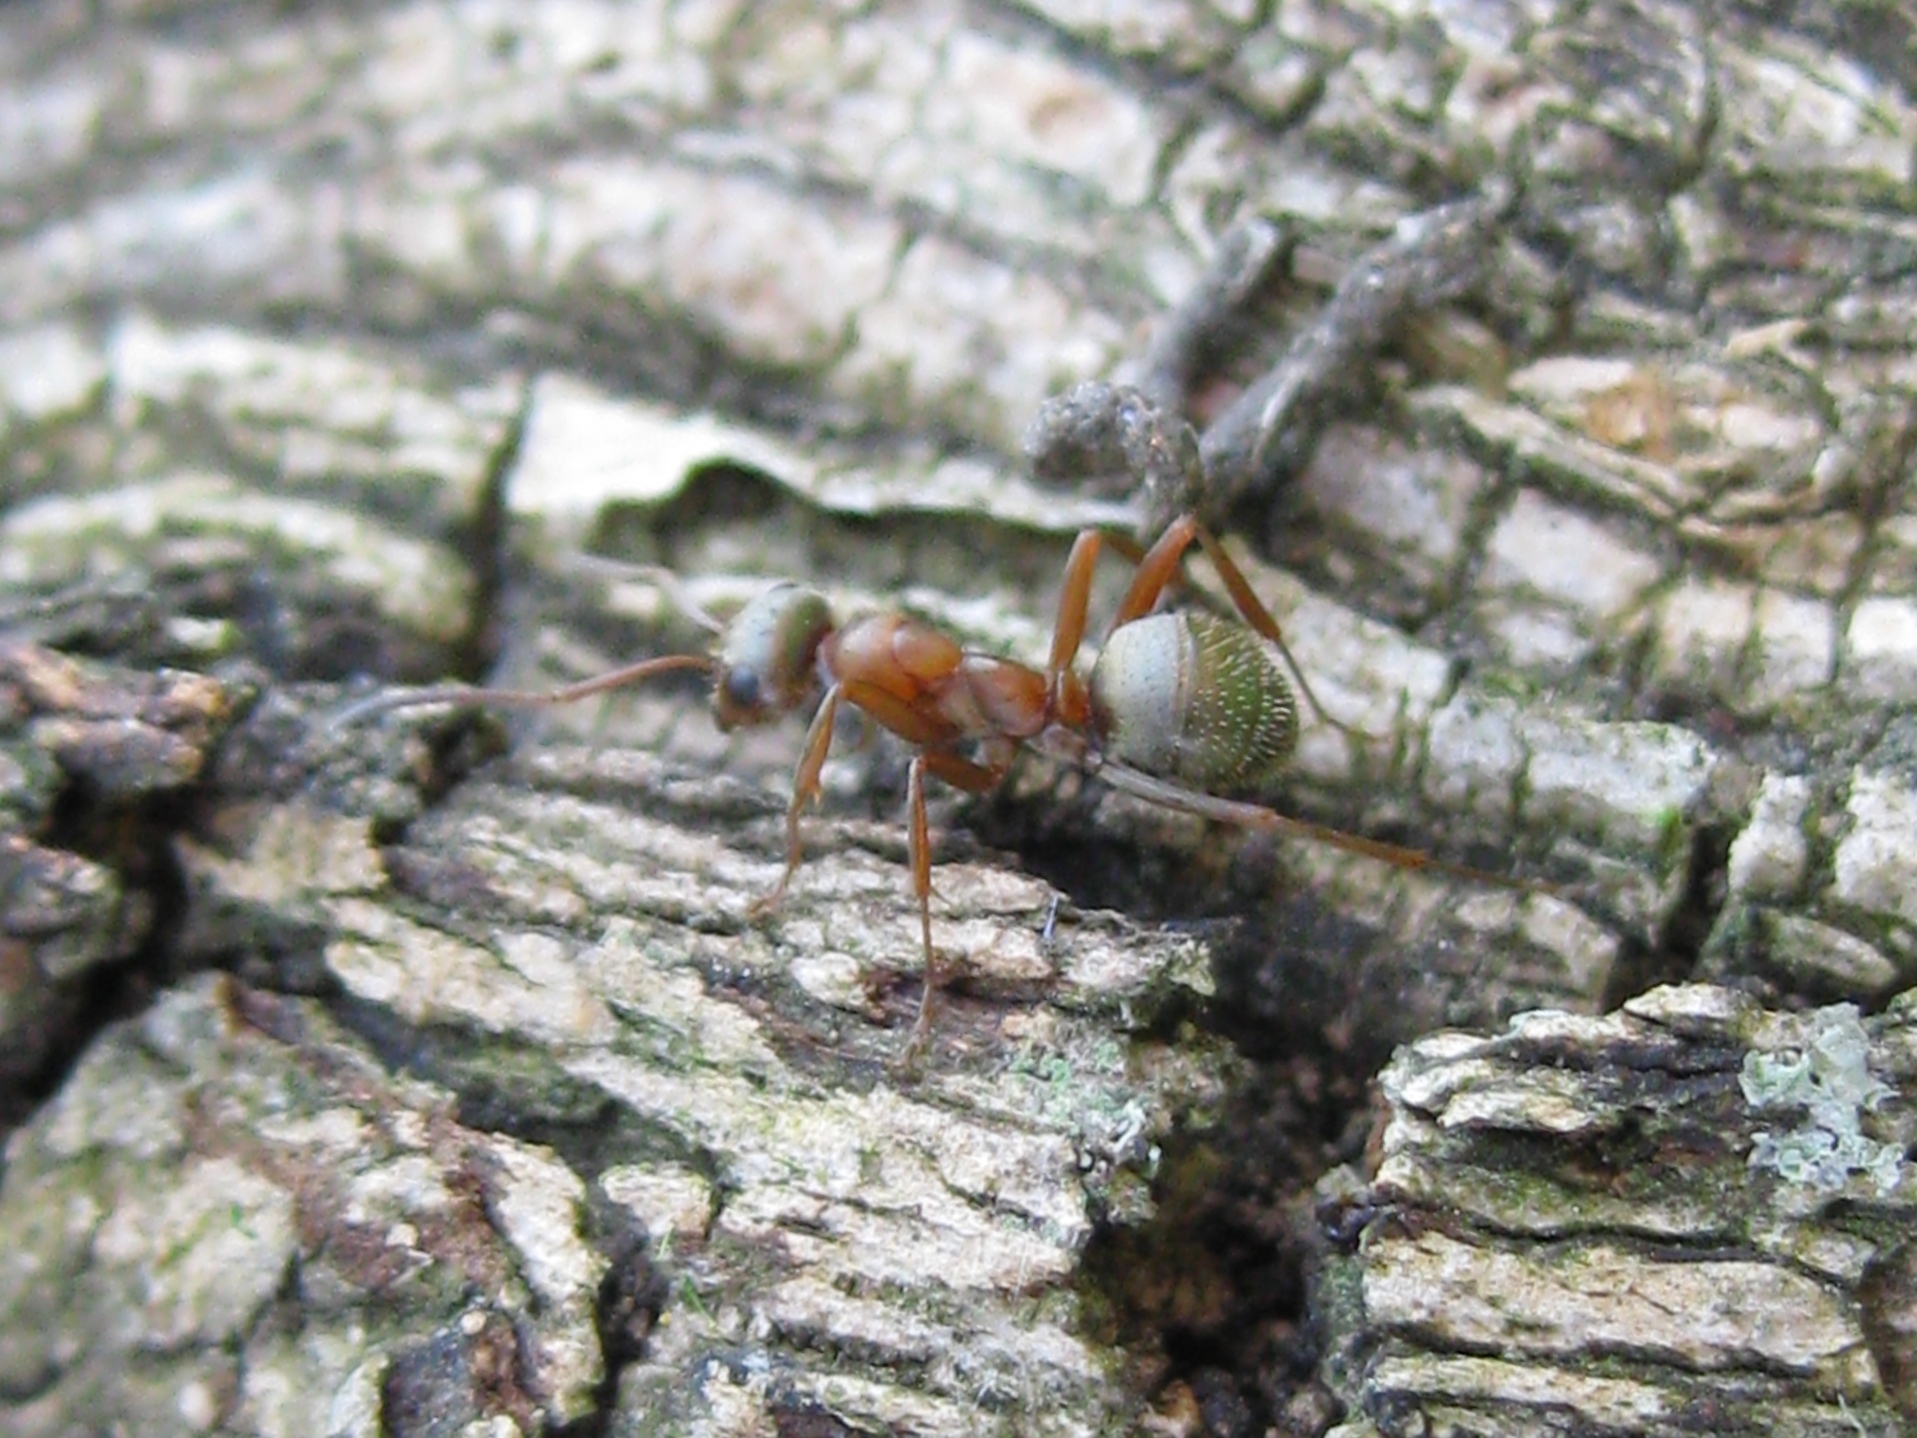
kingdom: Animalia
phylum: Arthropoda
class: Insecta
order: Hymenoptera
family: Formicidae
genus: Formica
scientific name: Formica
